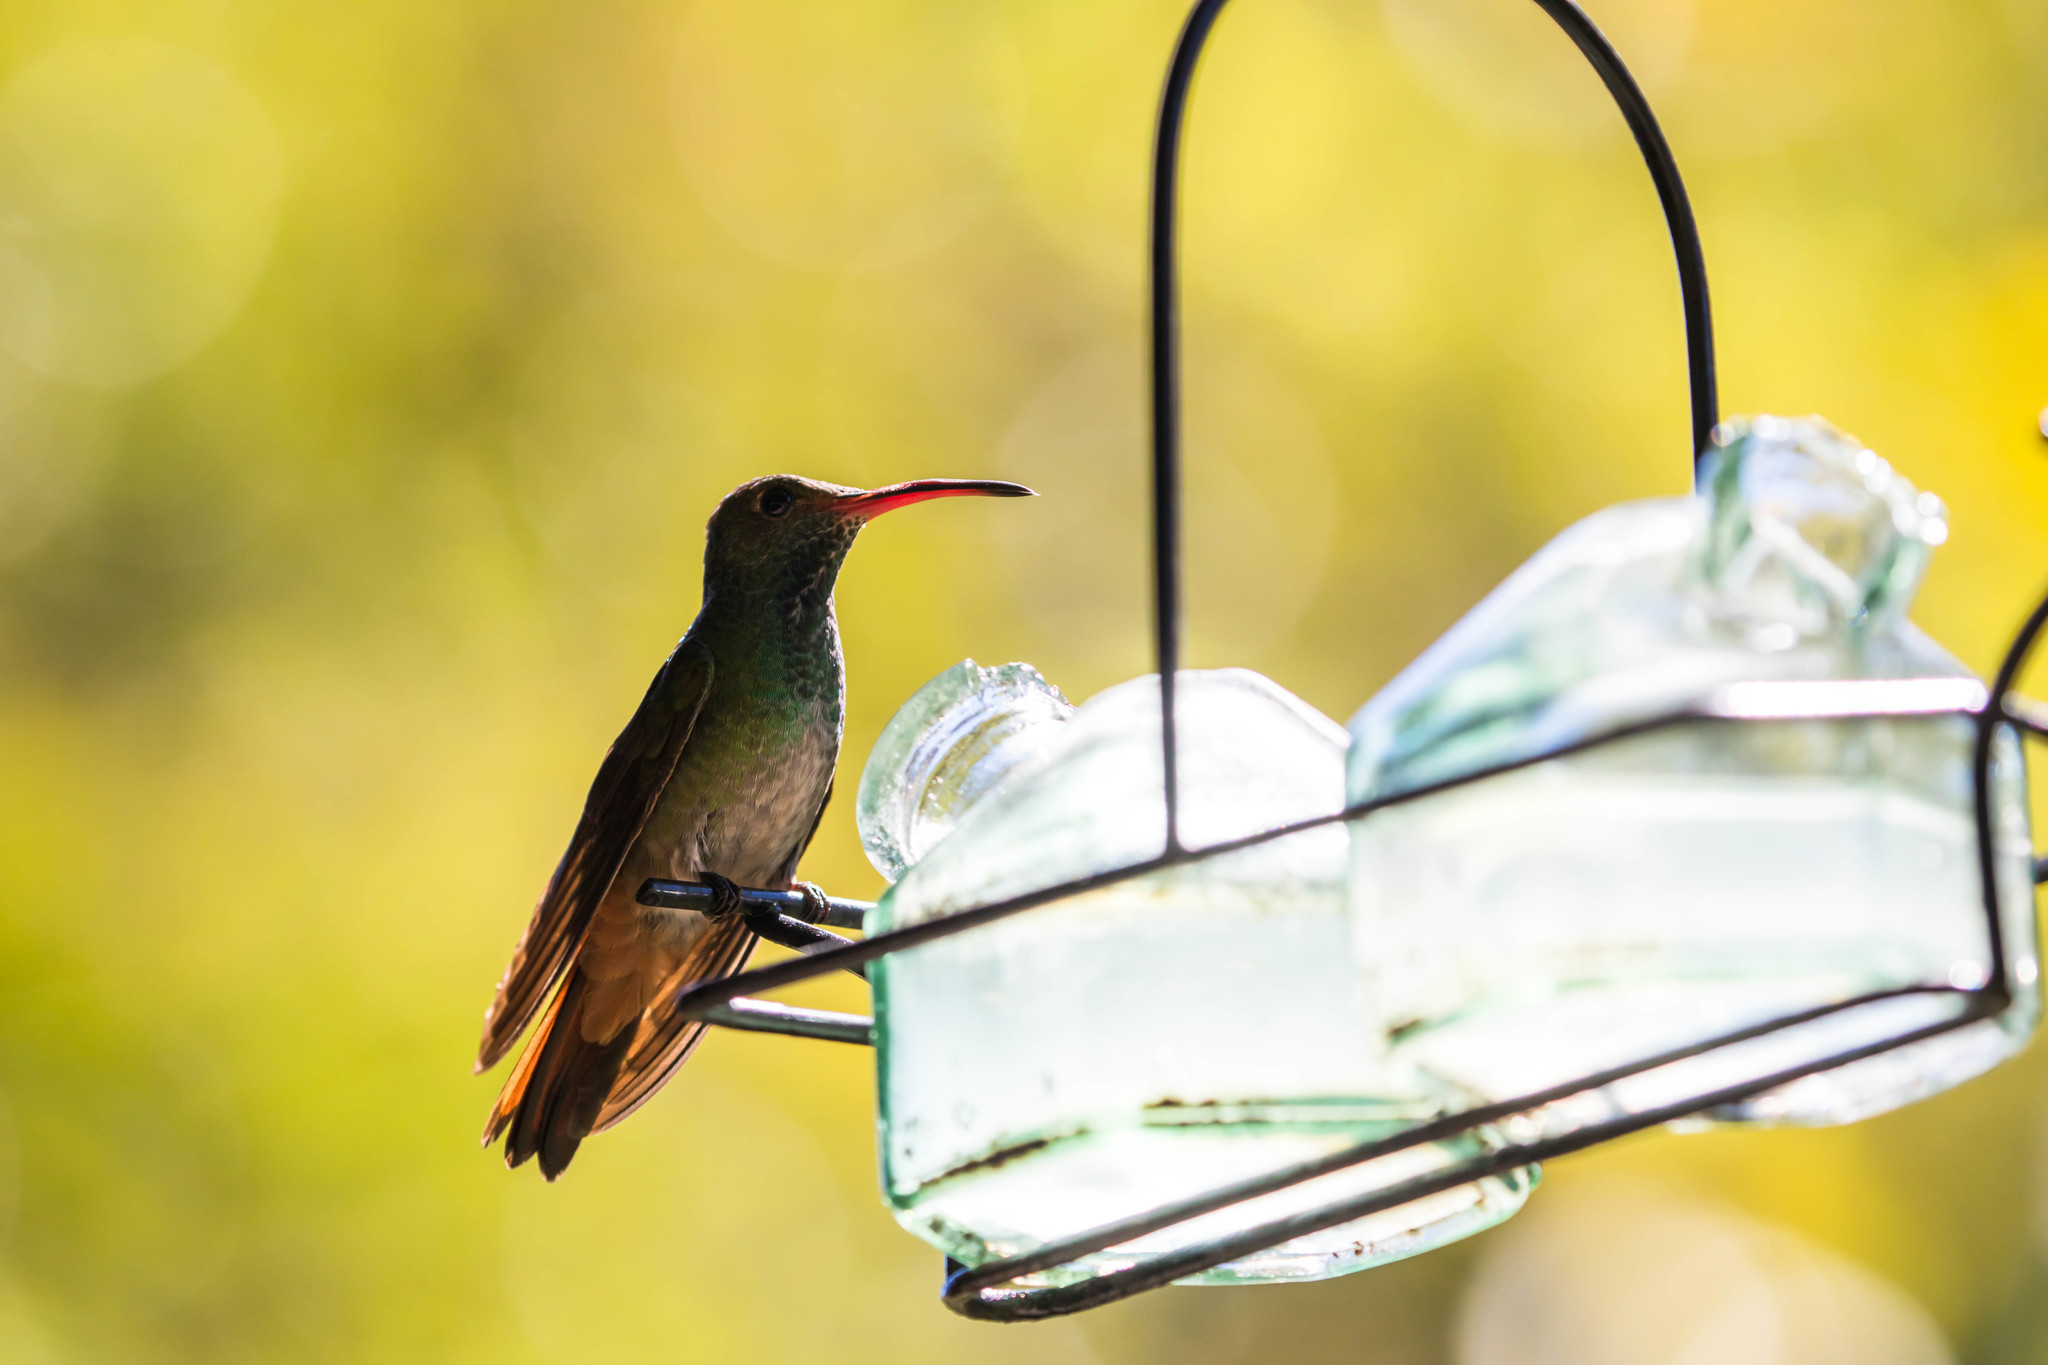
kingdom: Animalia
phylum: Chordata
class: Aves
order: Apodiformes
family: Trochilidae
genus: Amazilia
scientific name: Amazilia tzacatl
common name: Rufous-tailed hummingbird
